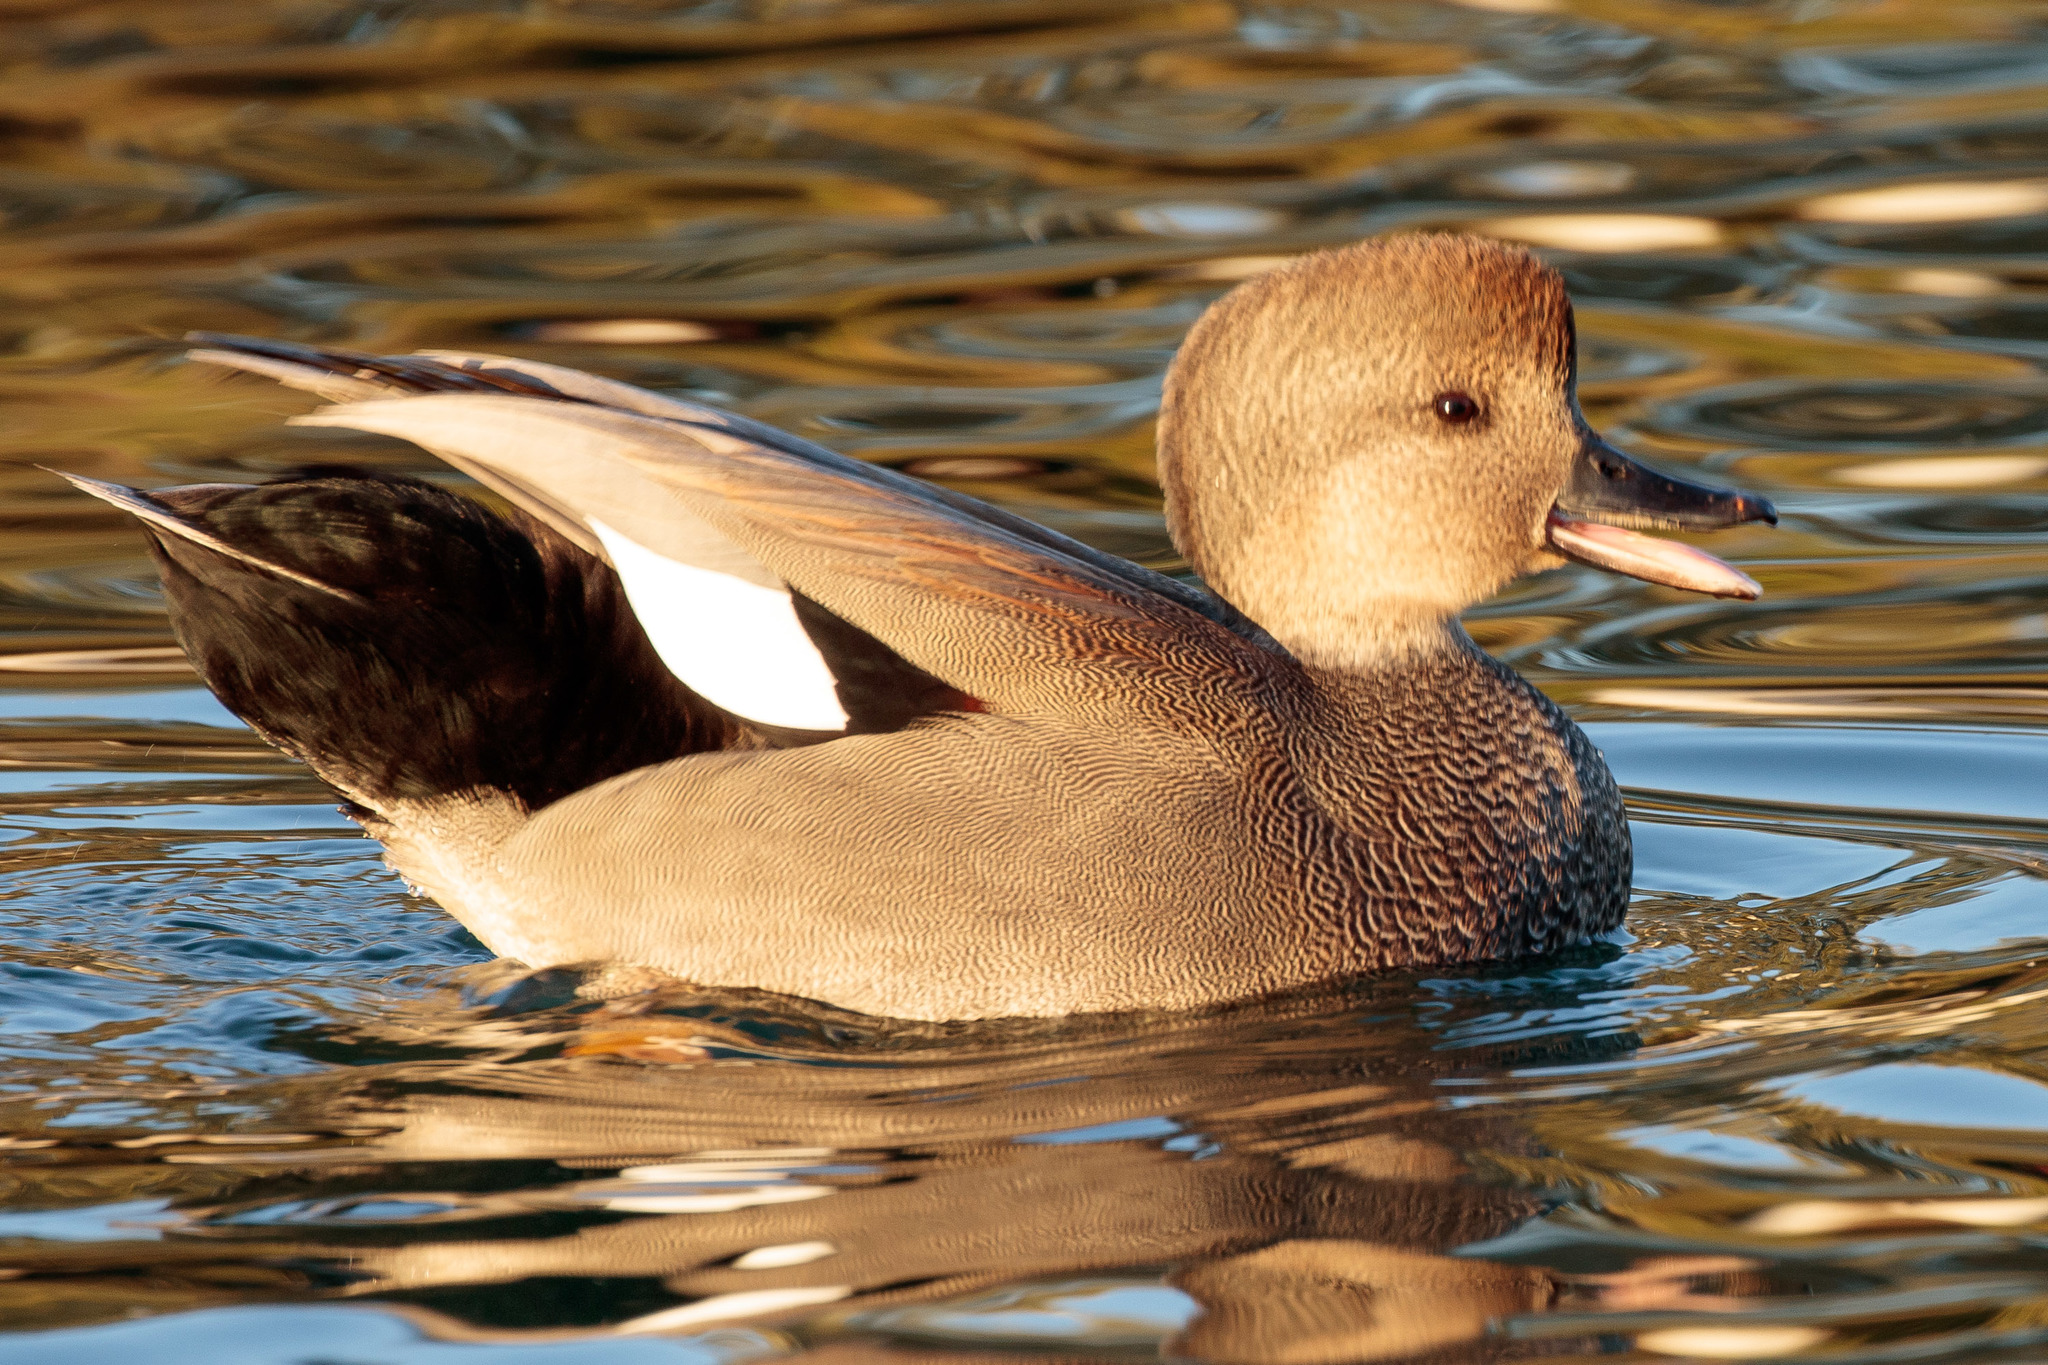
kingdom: Animalia
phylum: Chordata
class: Aves
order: Anseriformes
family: Anatidae
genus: Mareca
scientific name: Mareca strepera
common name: Gadwall
